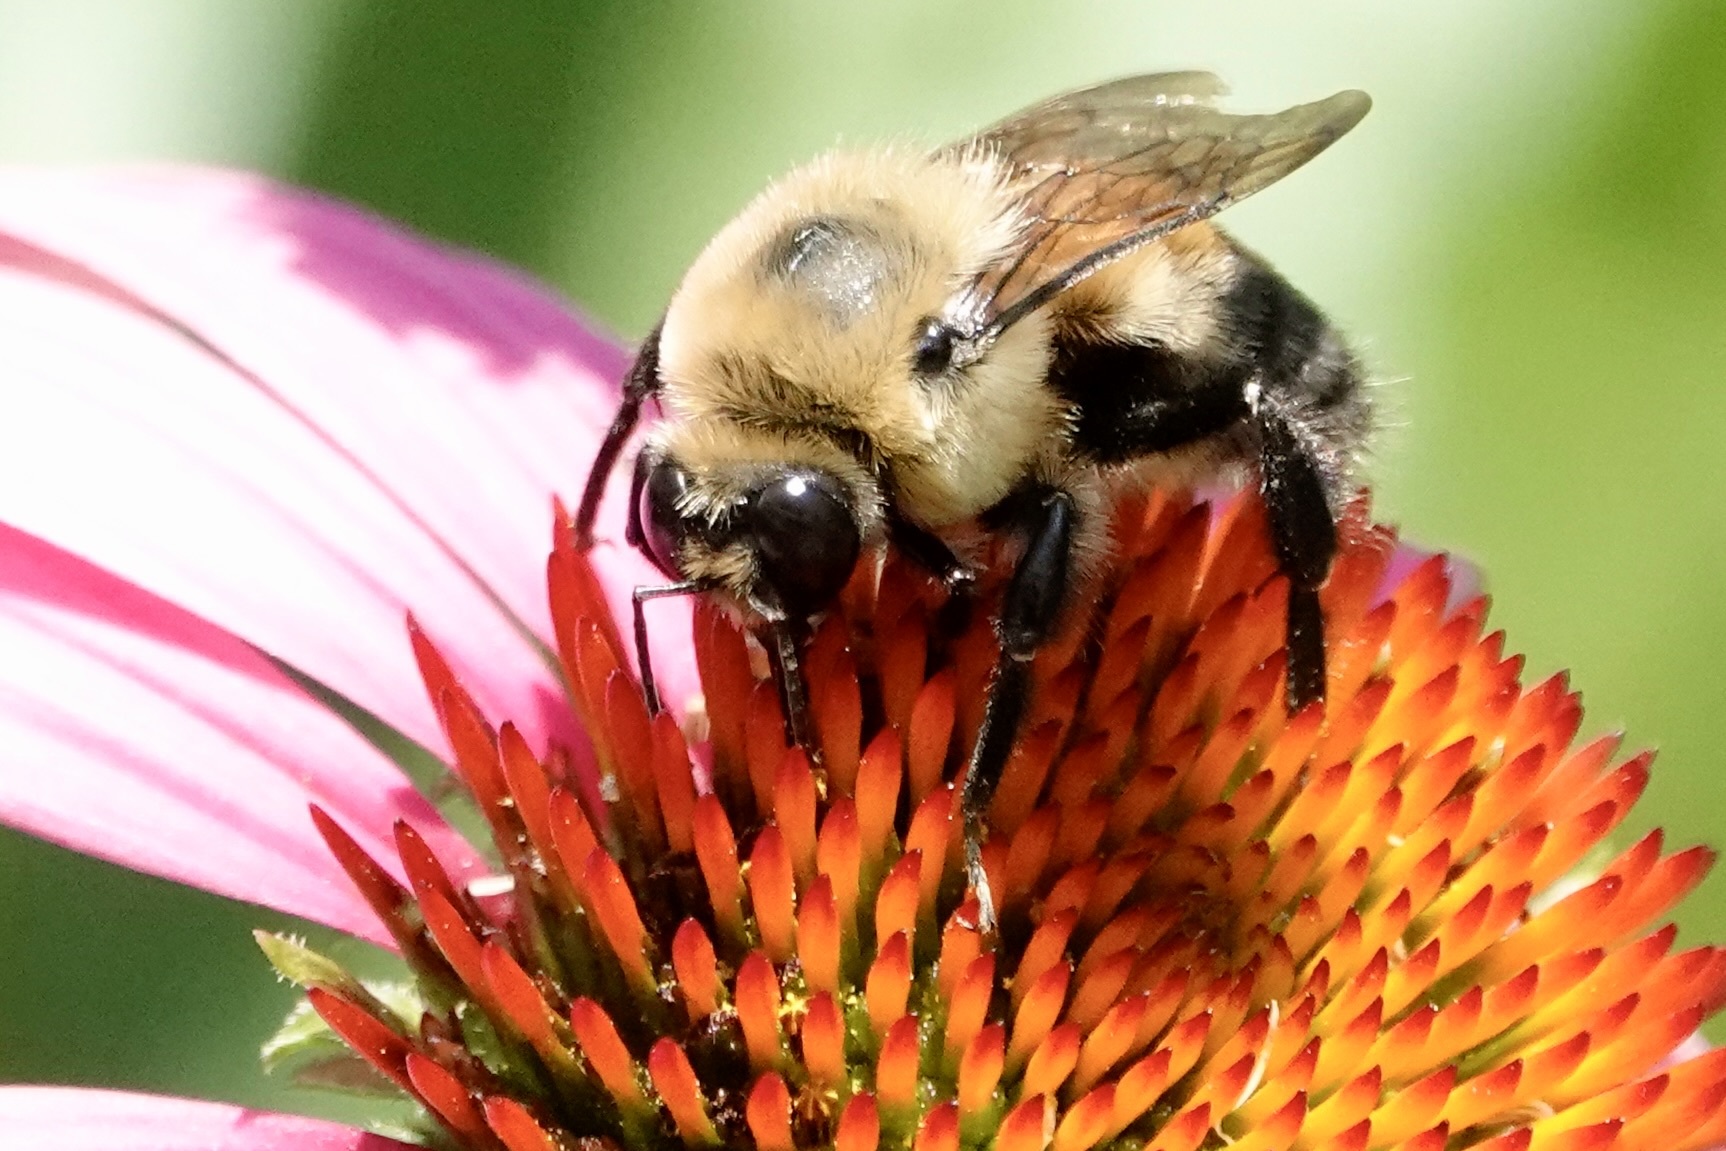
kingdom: Animalia
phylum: Arthropoda
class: Insecta
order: Hymenoptera
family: Apidae
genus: Bombus
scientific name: Bombus griseocollis
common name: Brown-belted bumble bee
